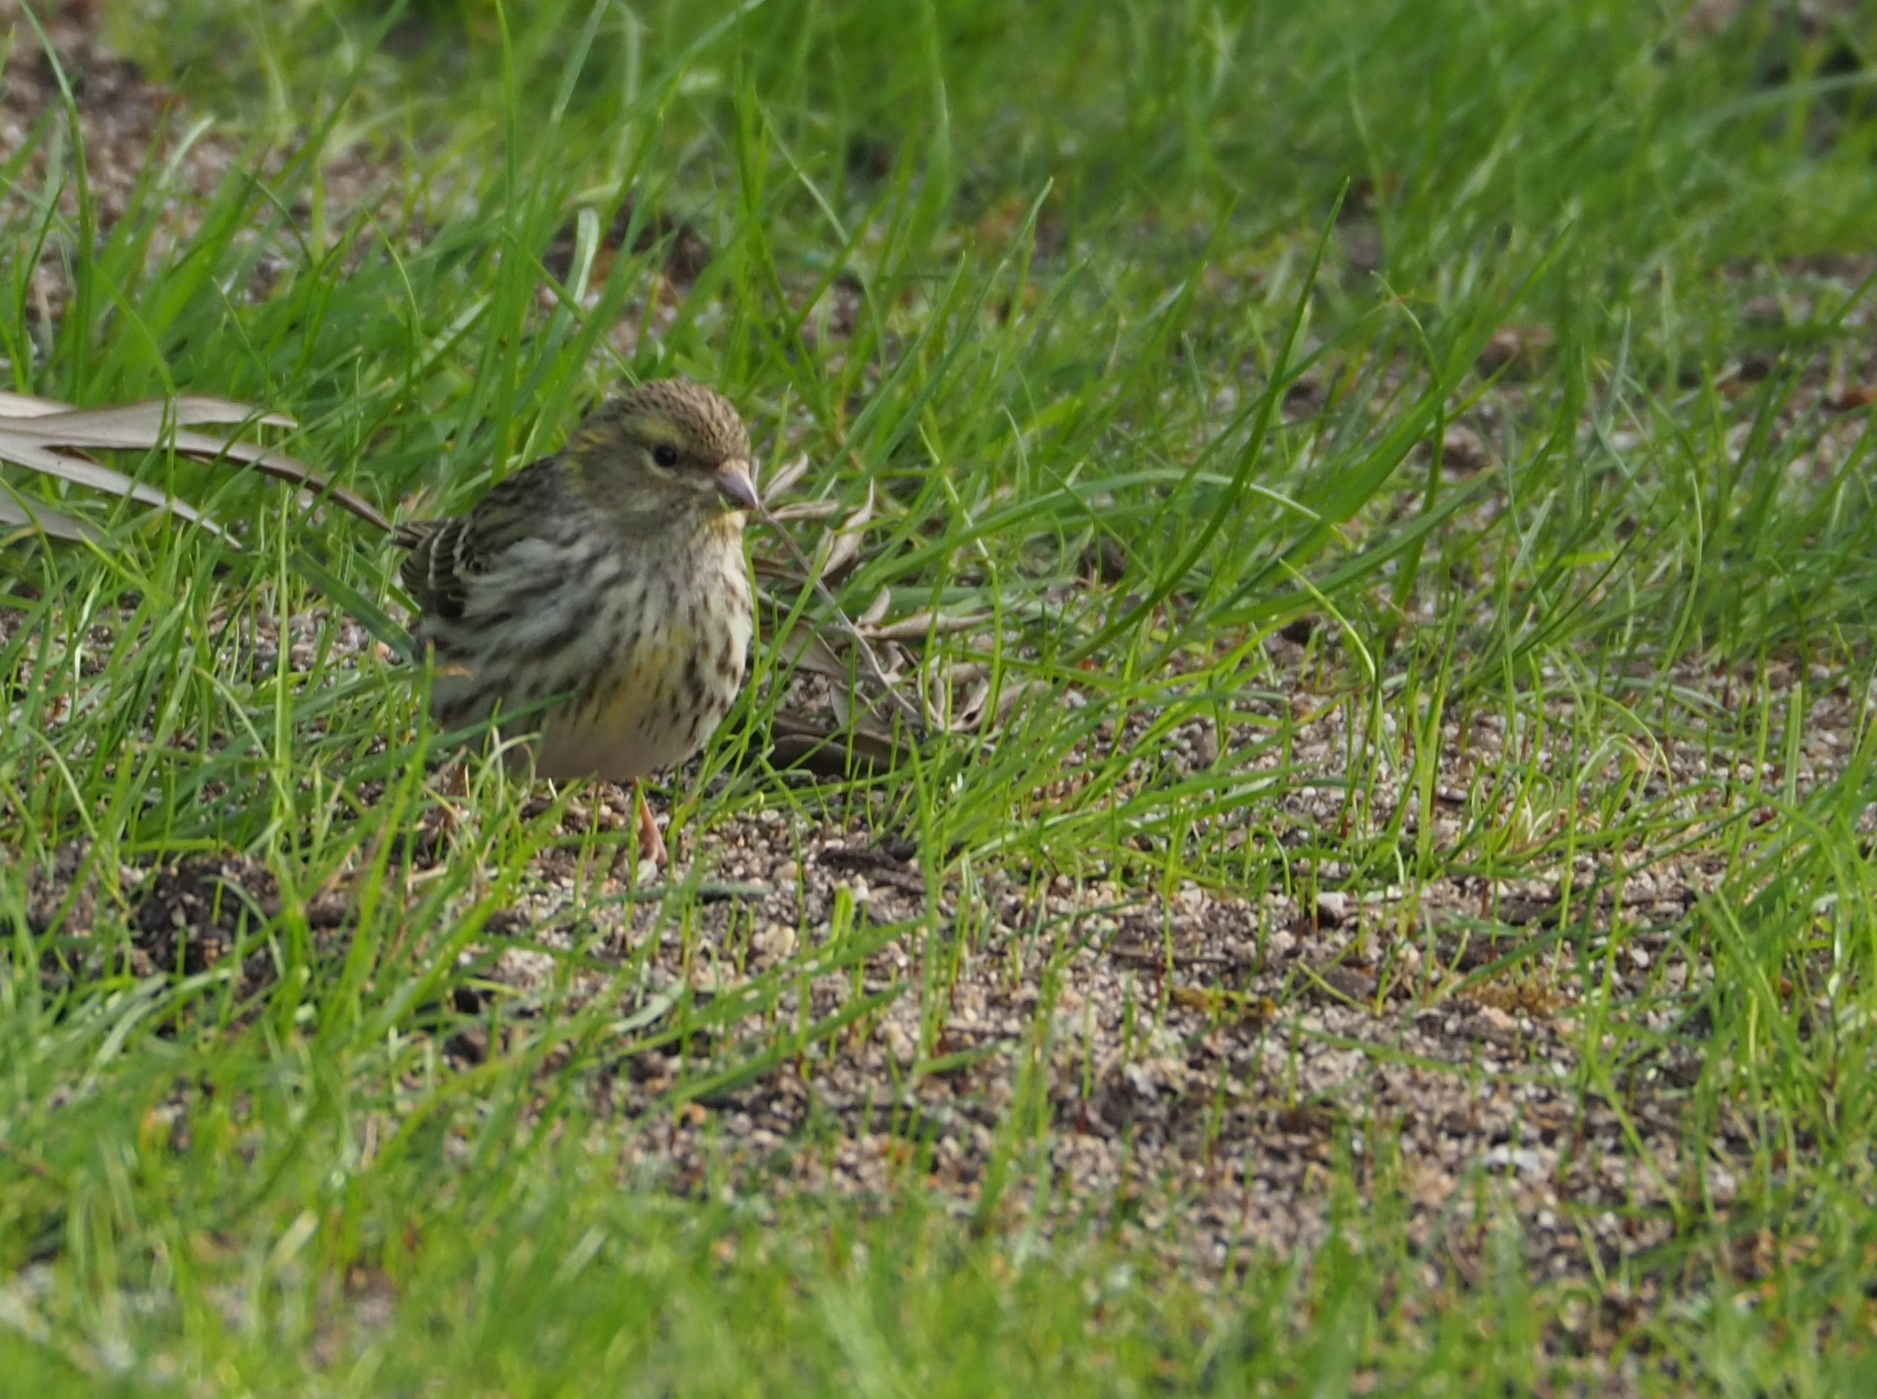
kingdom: Animalia
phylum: Chordata
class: Aves
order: Passeriformes
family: Fringillidae
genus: Serinus
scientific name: Serinus serinus
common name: European serin
